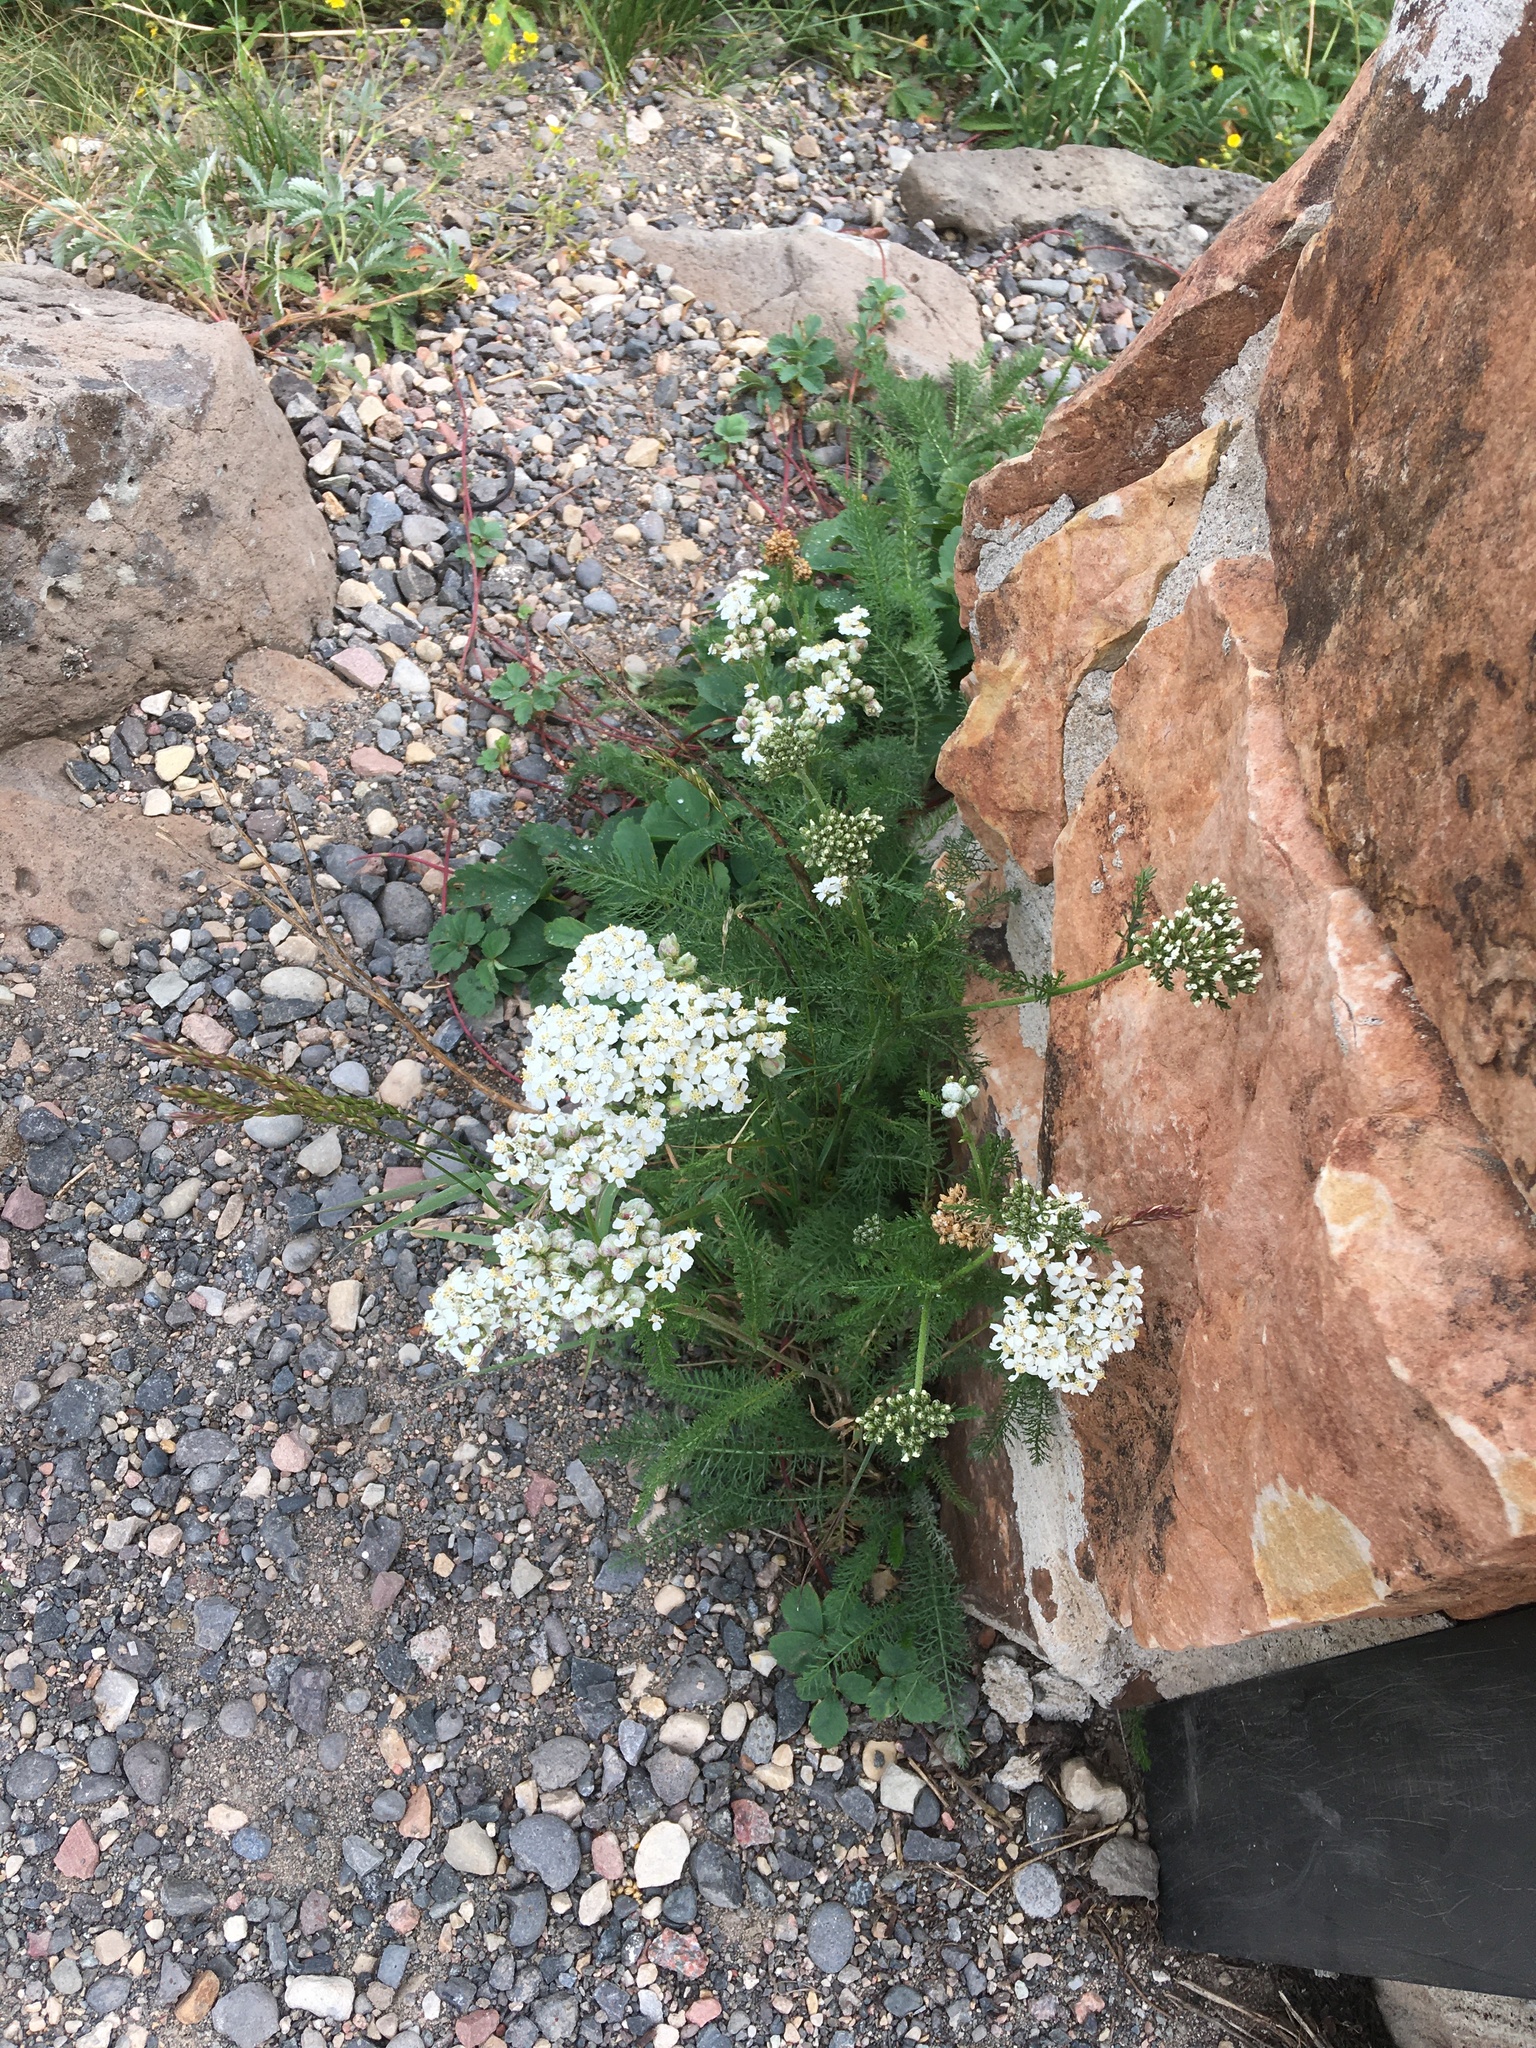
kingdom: Plantae
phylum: Tracheophyta
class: Magnoliopsida
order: Asterales
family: Asteraceae
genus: Achillea
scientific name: Achillea millefolium
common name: Yarrow
